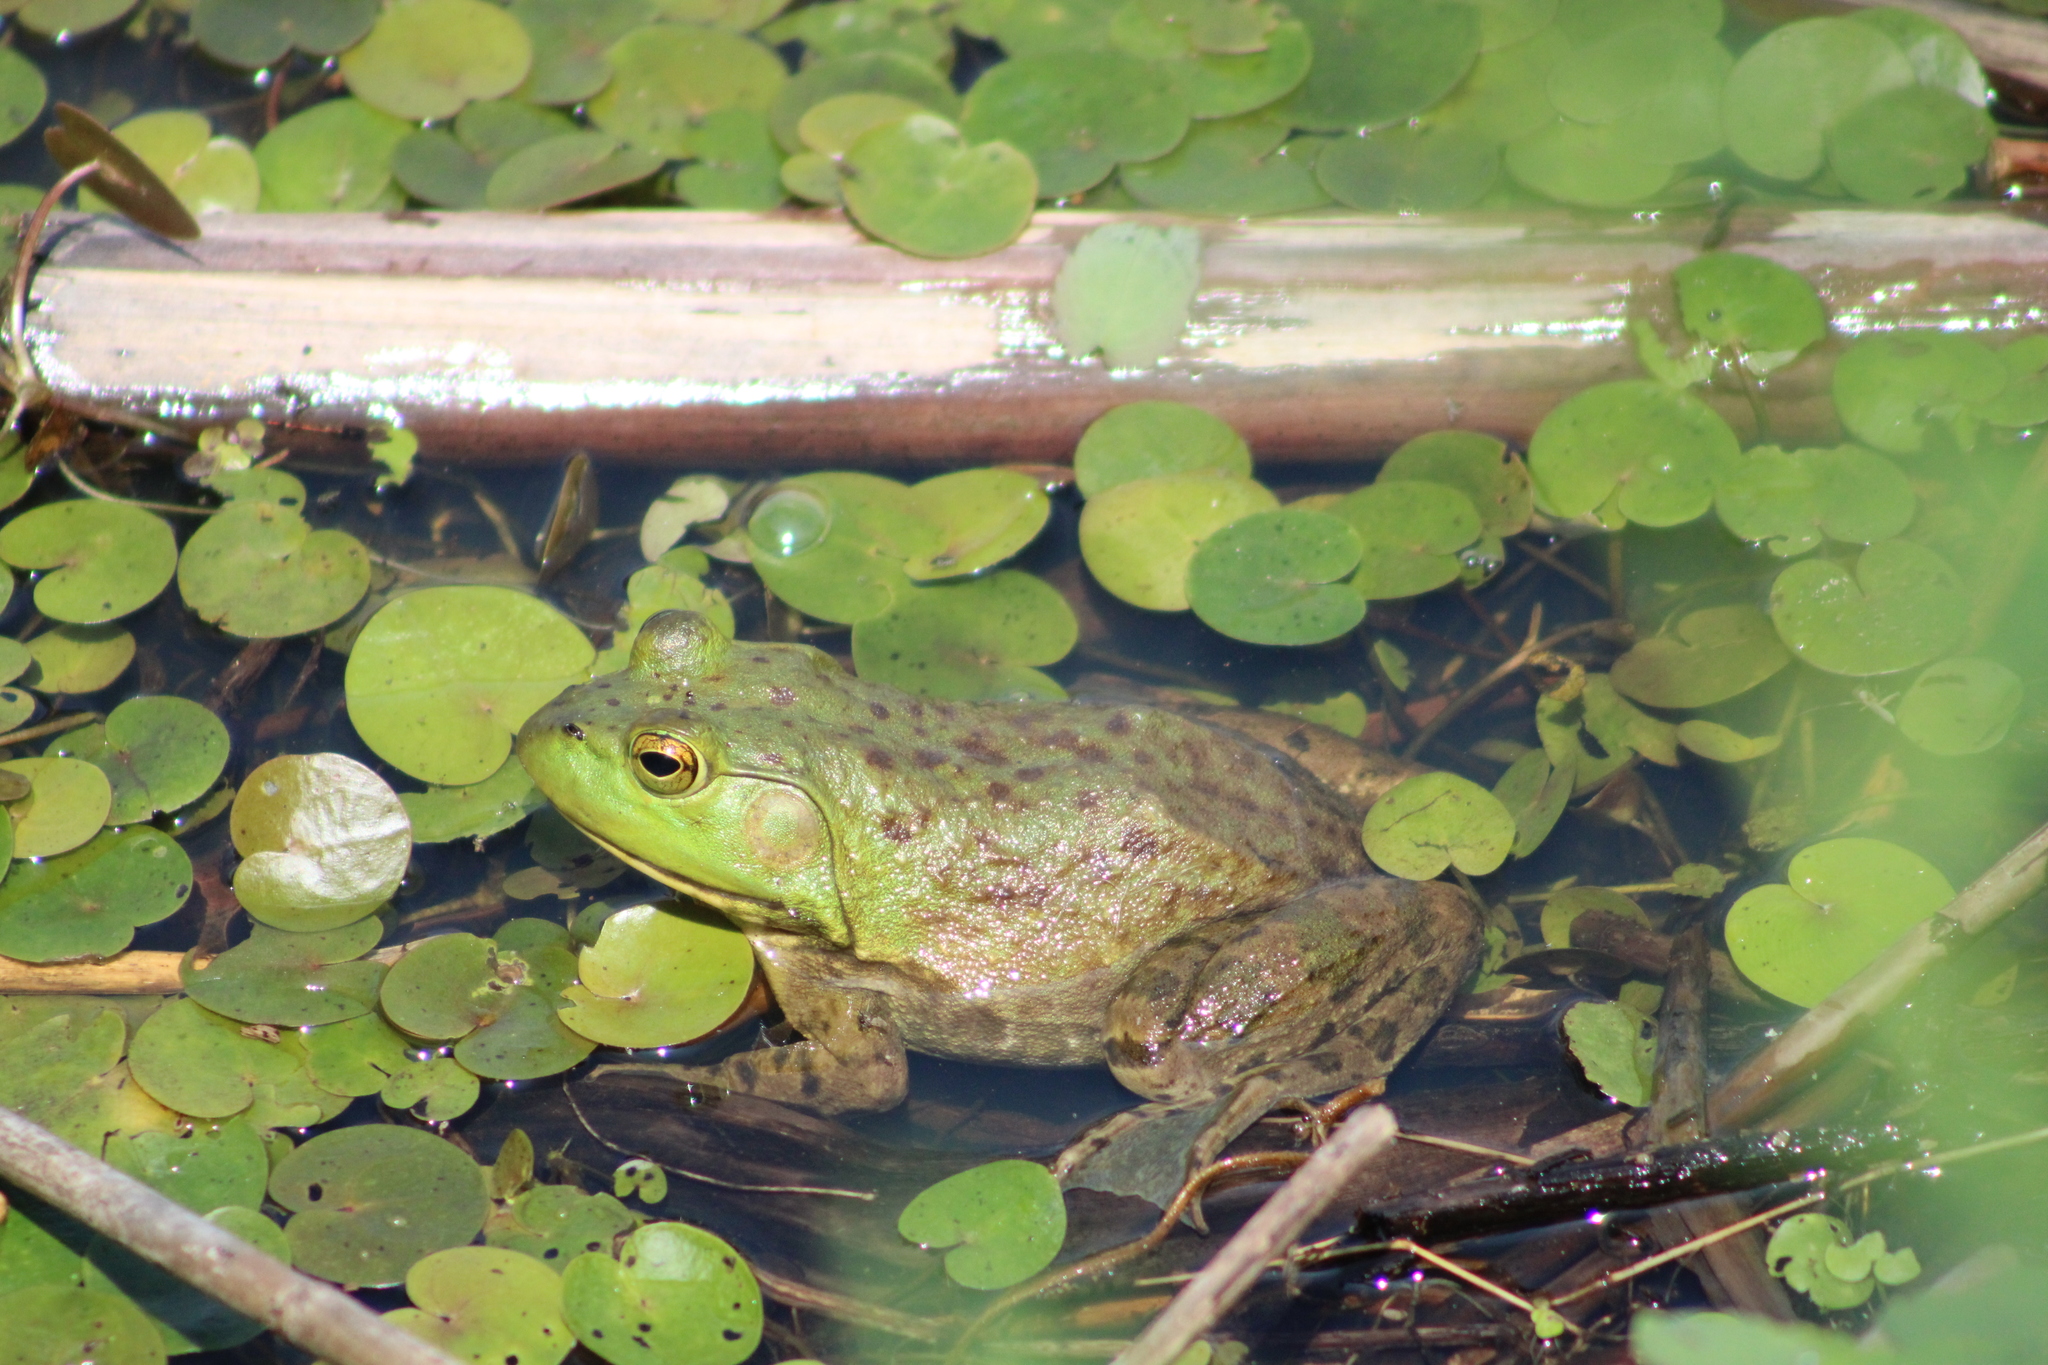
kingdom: Animalia
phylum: Chordata
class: Amphibia
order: Anura
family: Ranidae
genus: Lithobates
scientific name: Lithobates catesbeianus
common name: American bullfrog
